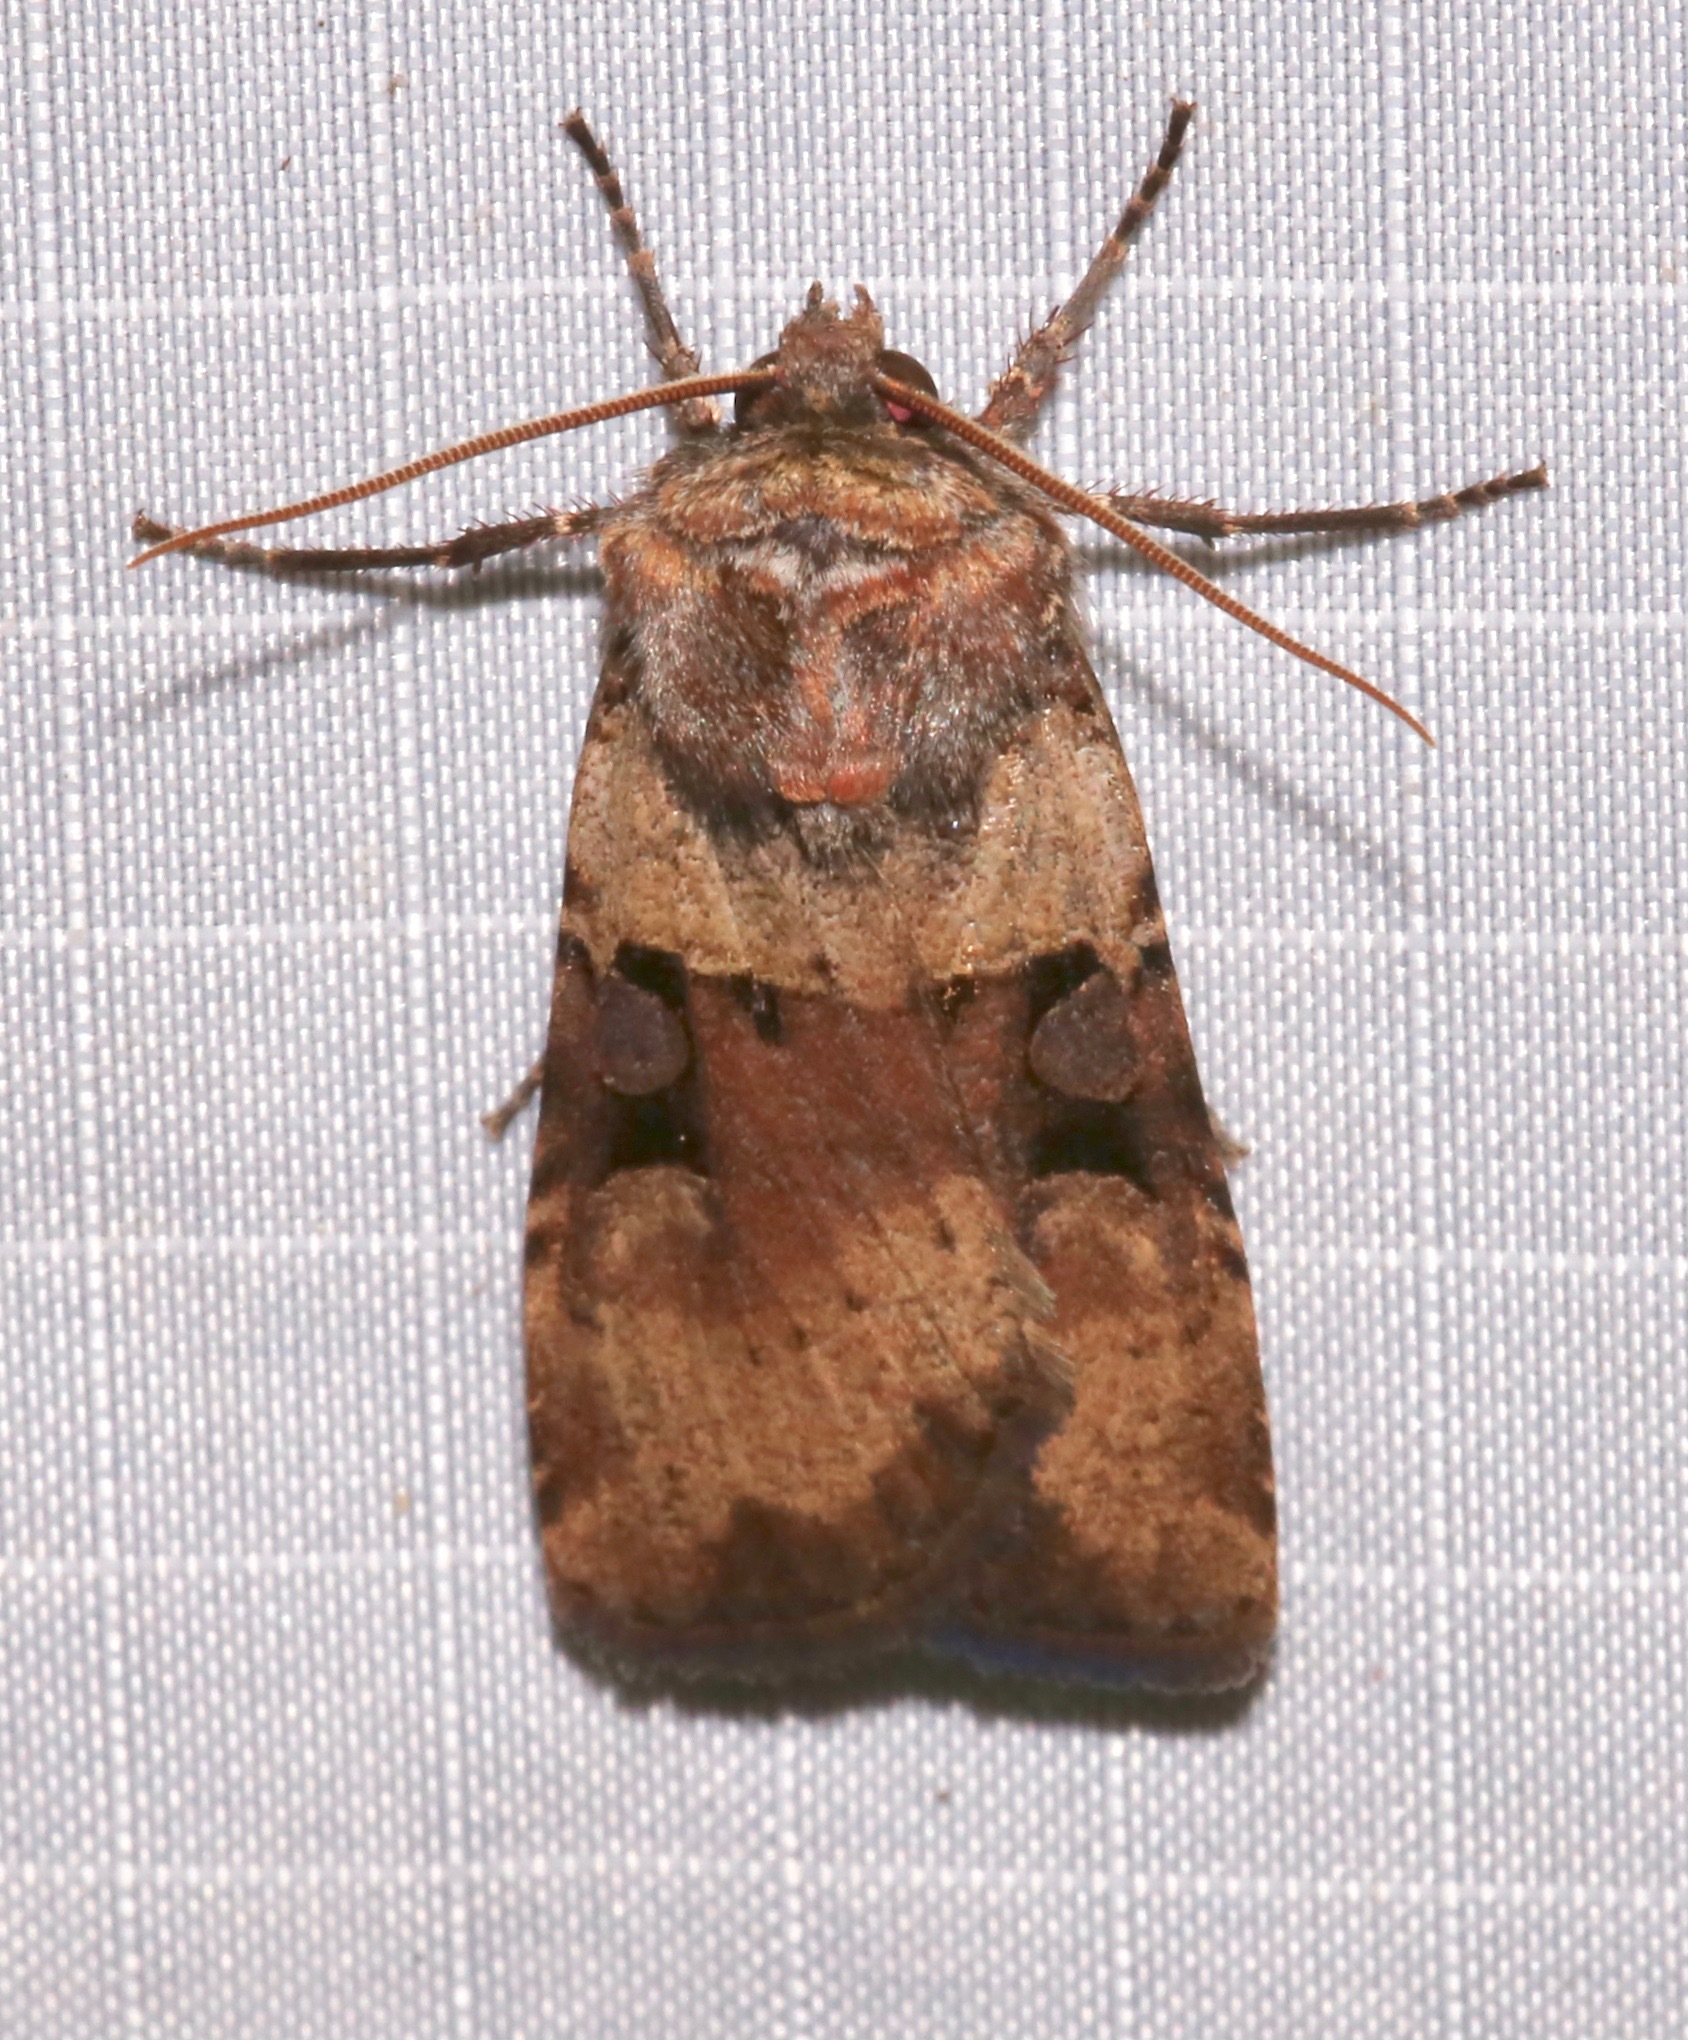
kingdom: Animalia
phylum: Arthropoda
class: Insecta
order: Lepidoptera
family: Noctuidae
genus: Richia
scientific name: Richia serano
